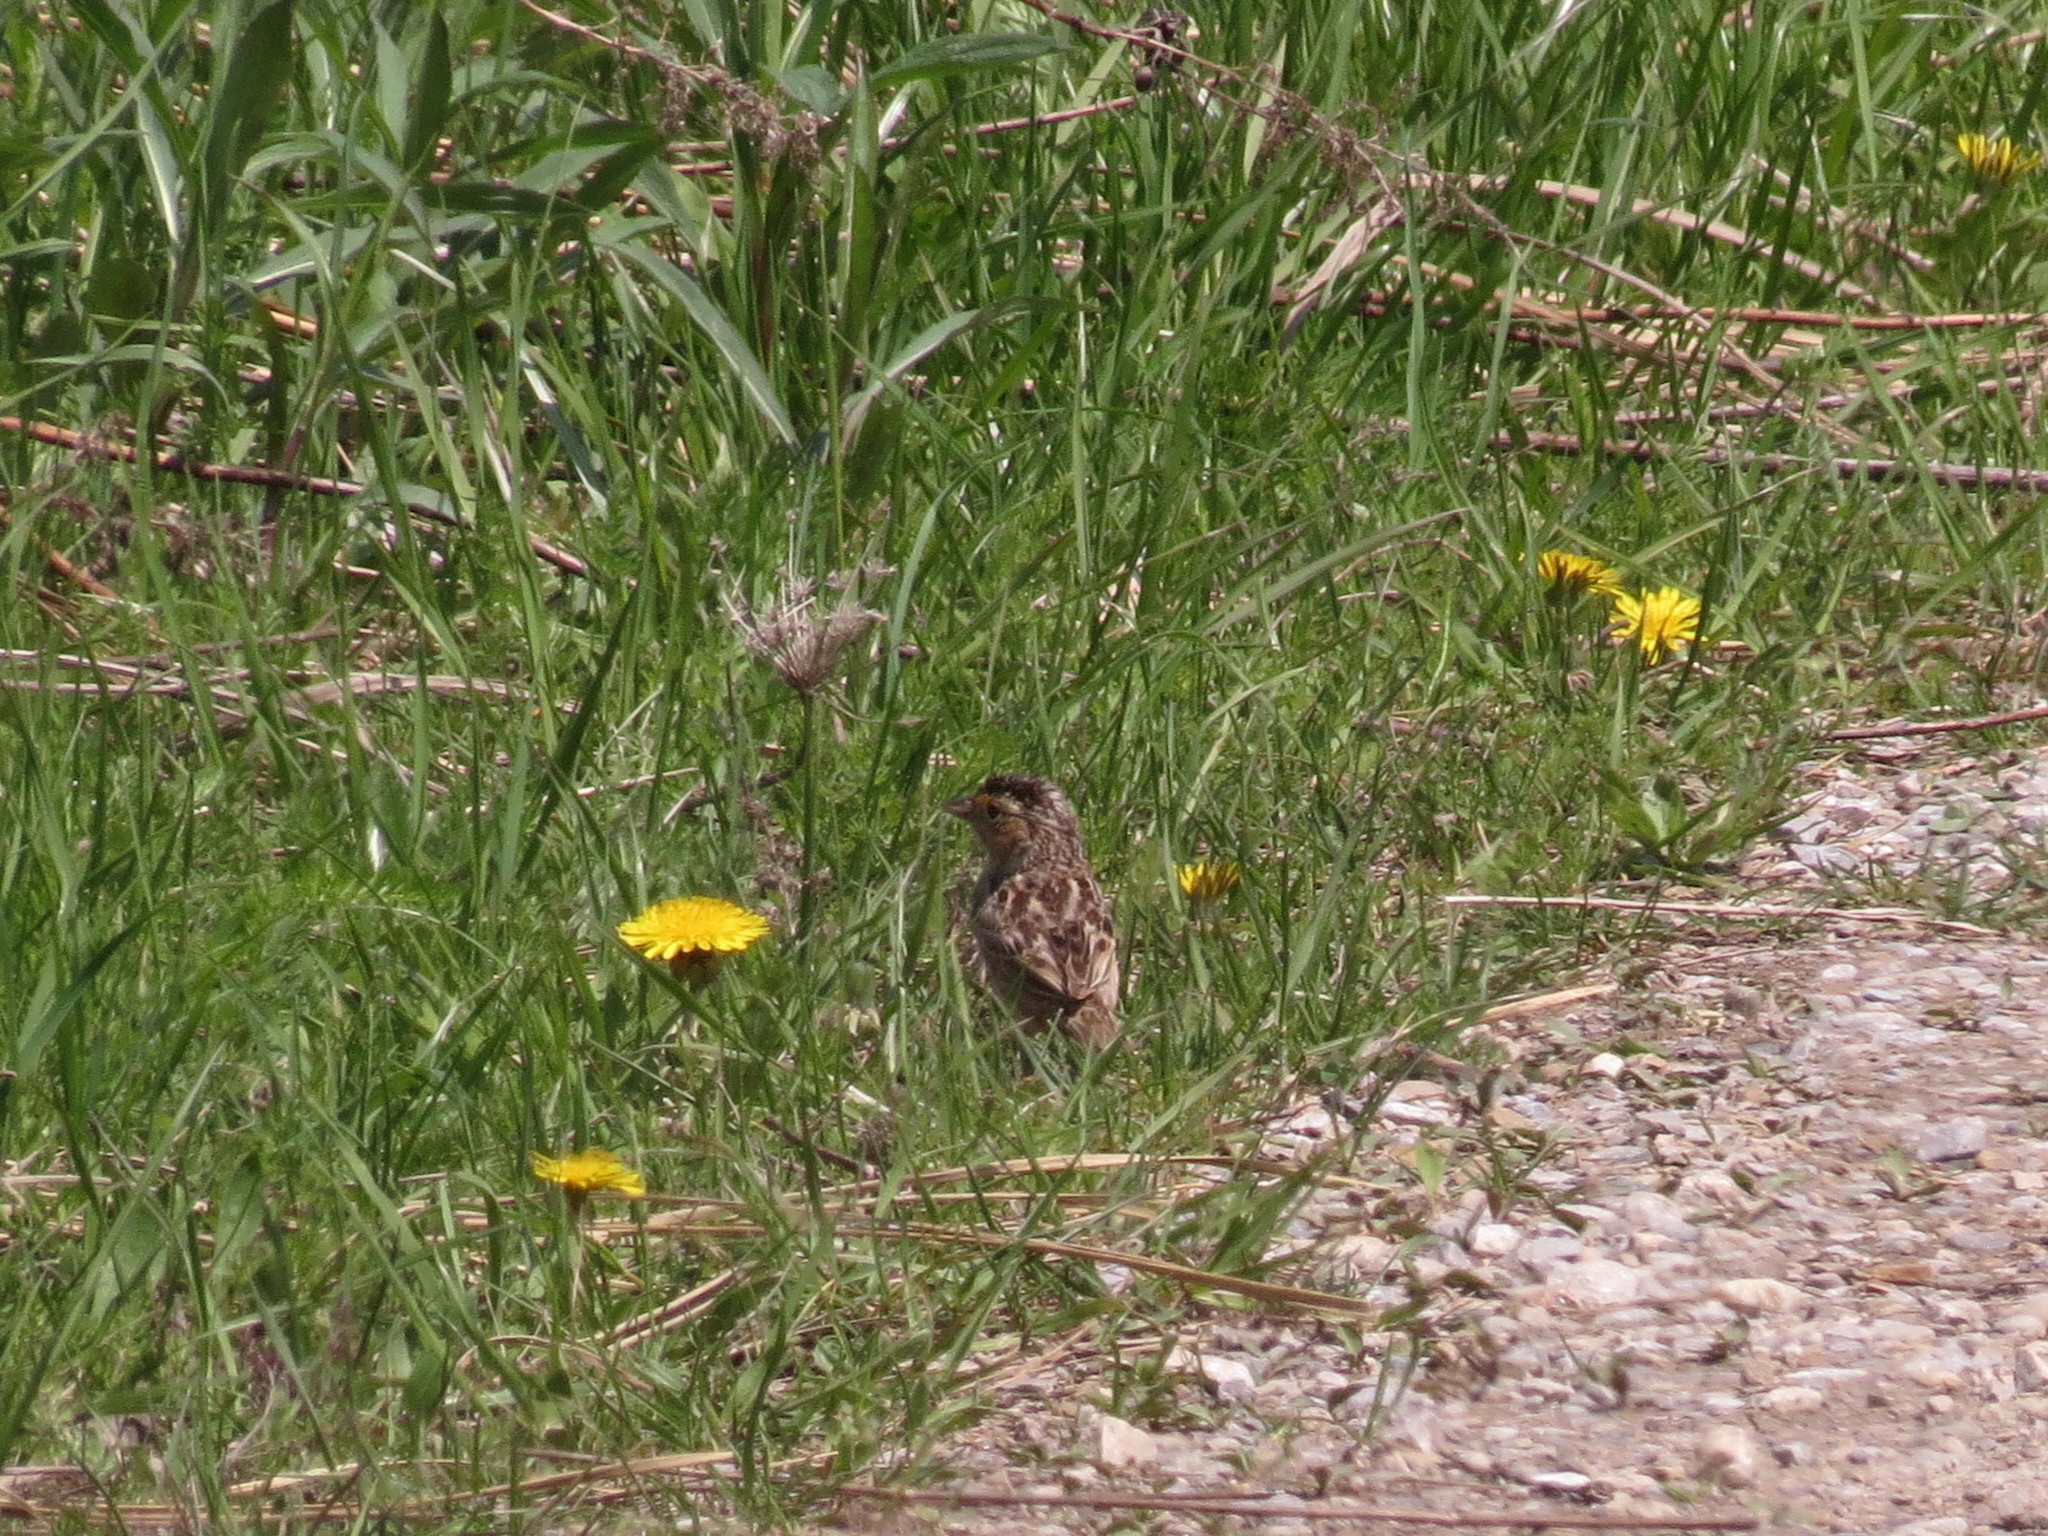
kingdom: Animalia
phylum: Chordata
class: Aves
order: Passeriformes
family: Passerellidae
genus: Ammodramus
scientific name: Ammodramus savannarum
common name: Grasshopper sparrow
